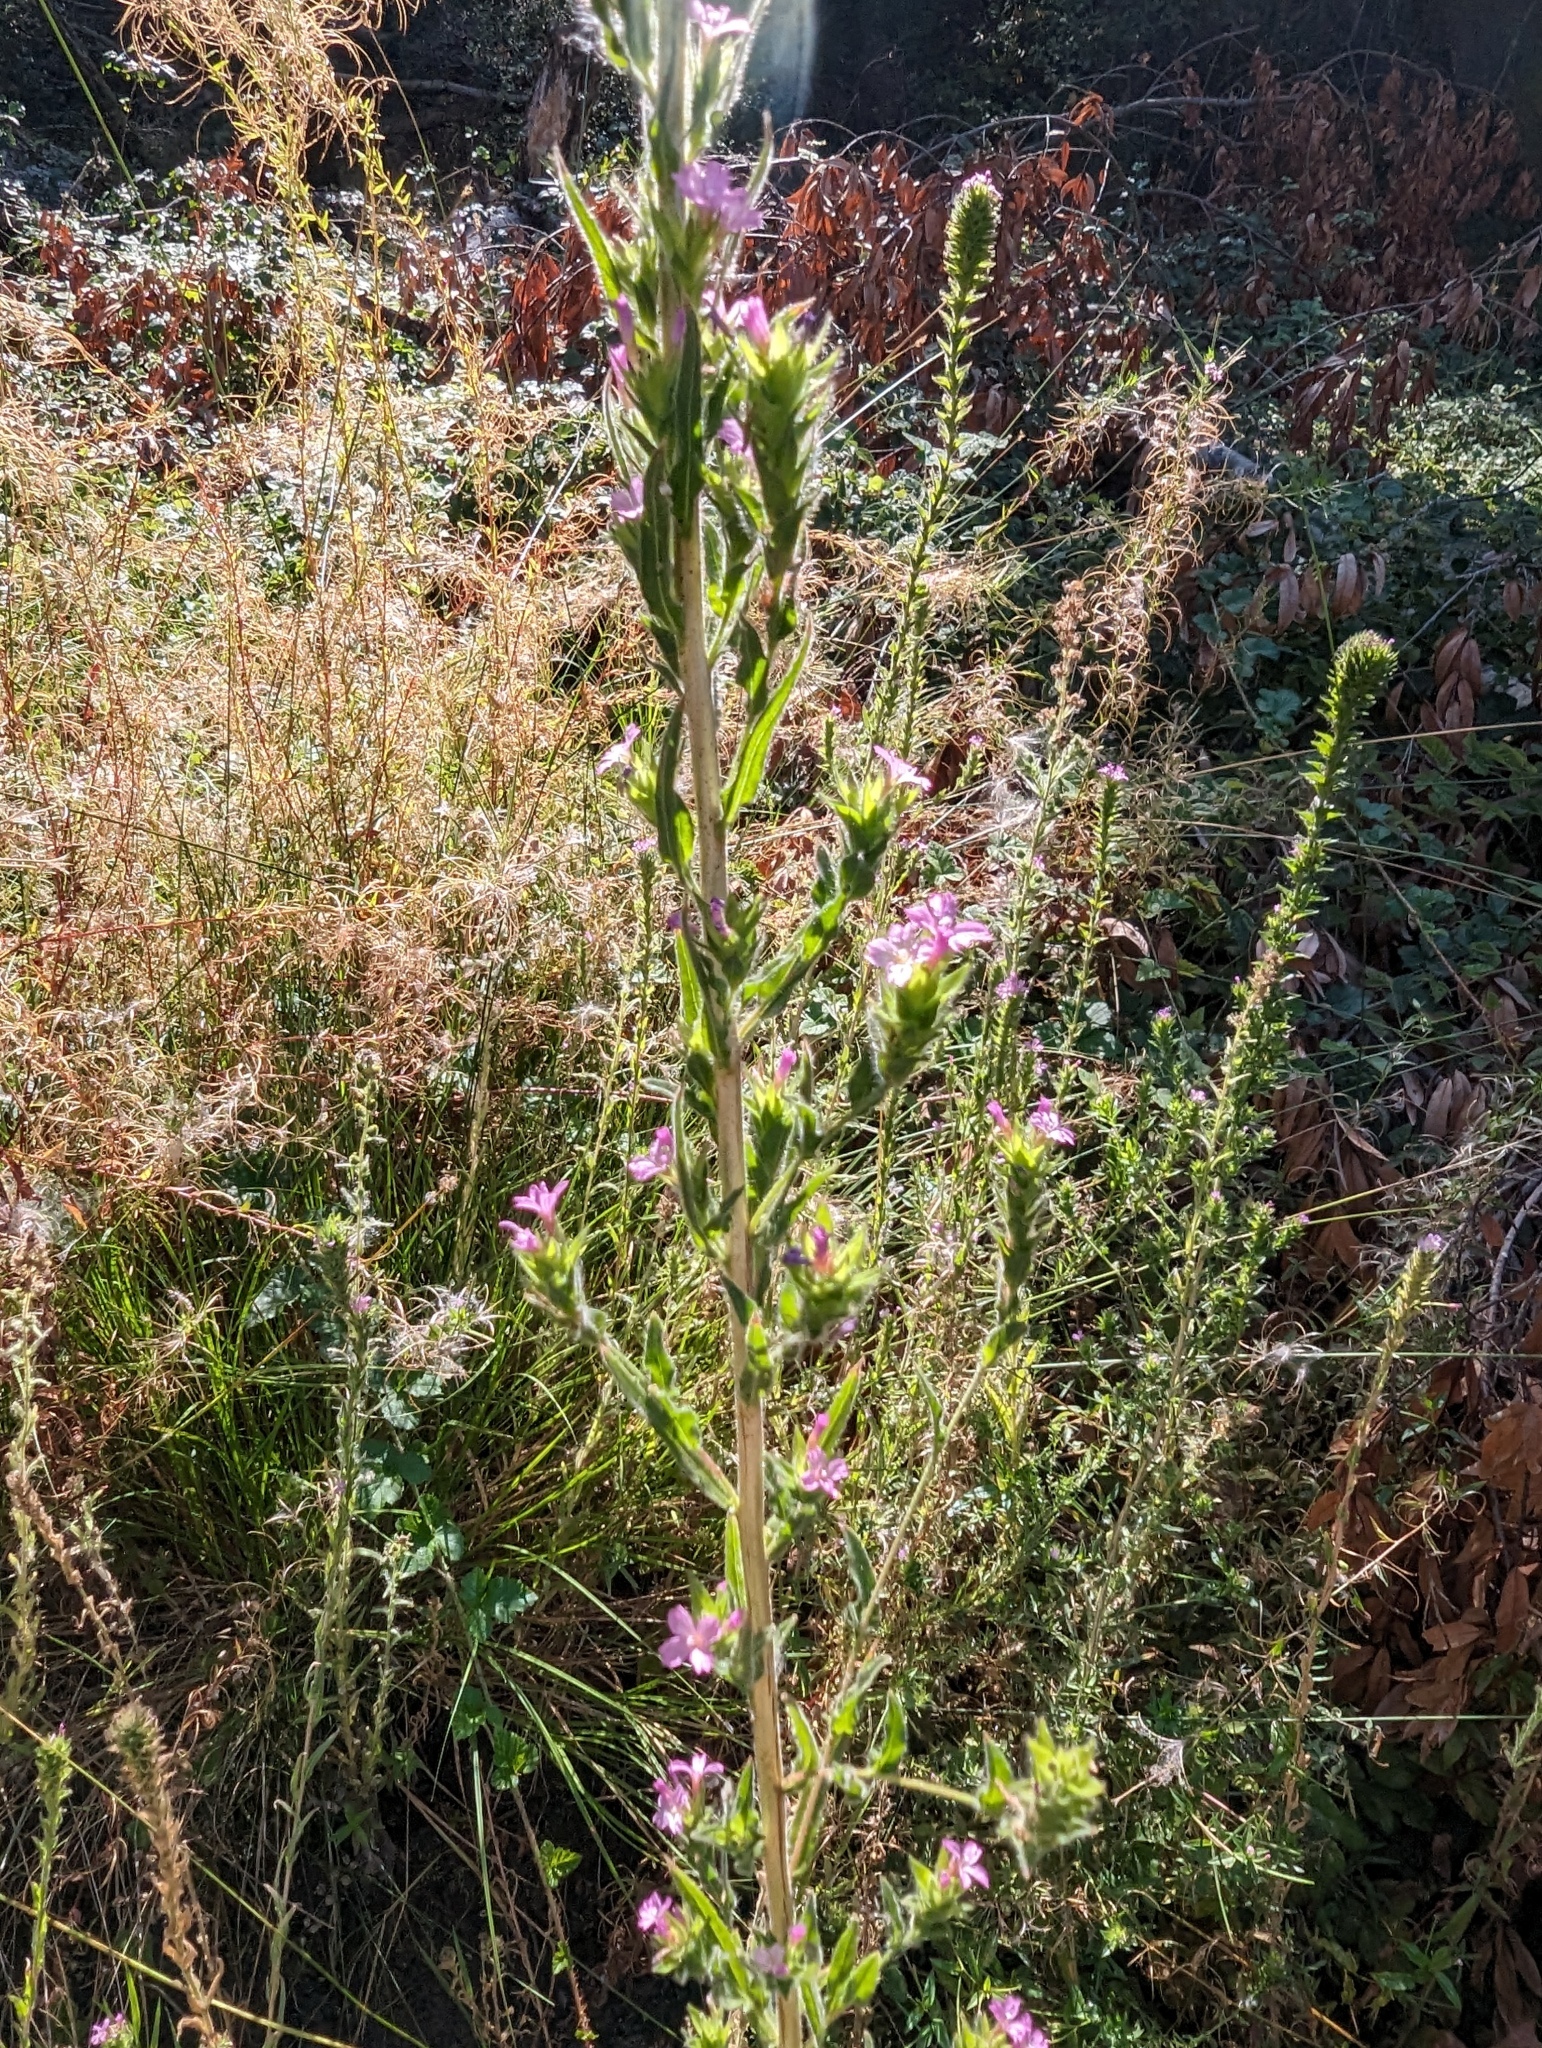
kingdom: Plantae
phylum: Tracheophyta
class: Magnoliopsida
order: Myrtales
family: Onagraceae
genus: Epilobium
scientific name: Epilobium densiflorum
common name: Dense spike-primrose
